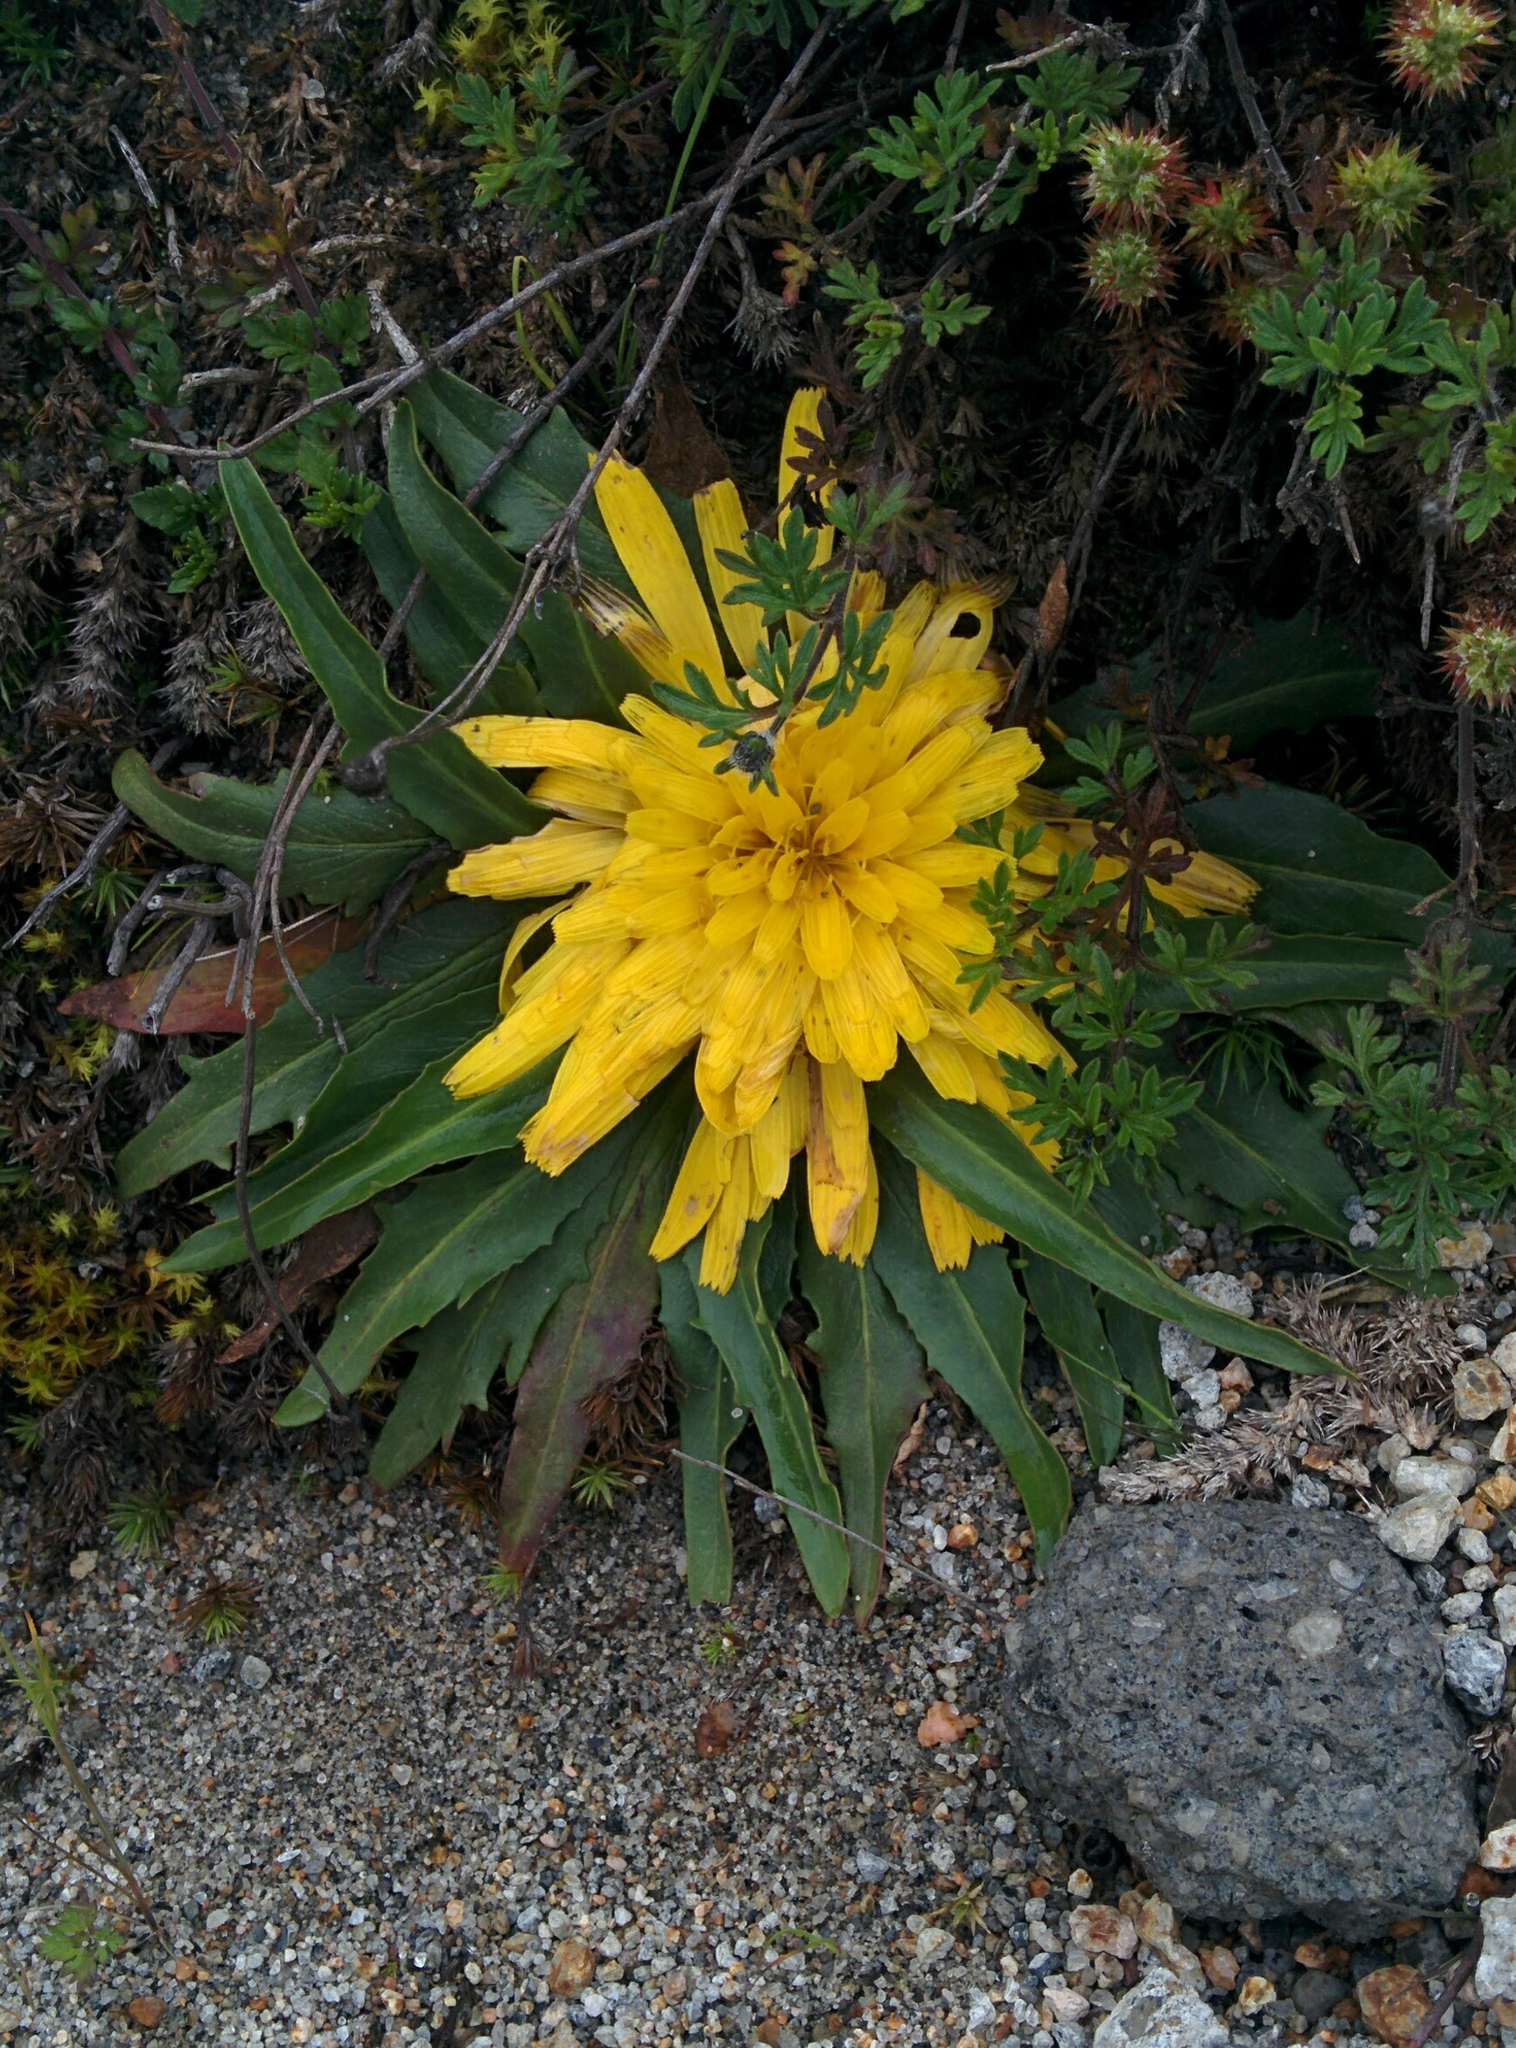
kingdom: Plantae
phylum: Tracheophyta
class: Magnoliopsida
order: Asterales
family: Asteraceae
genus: Hypochaeris
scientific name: Hypochaeris sessiliflora
